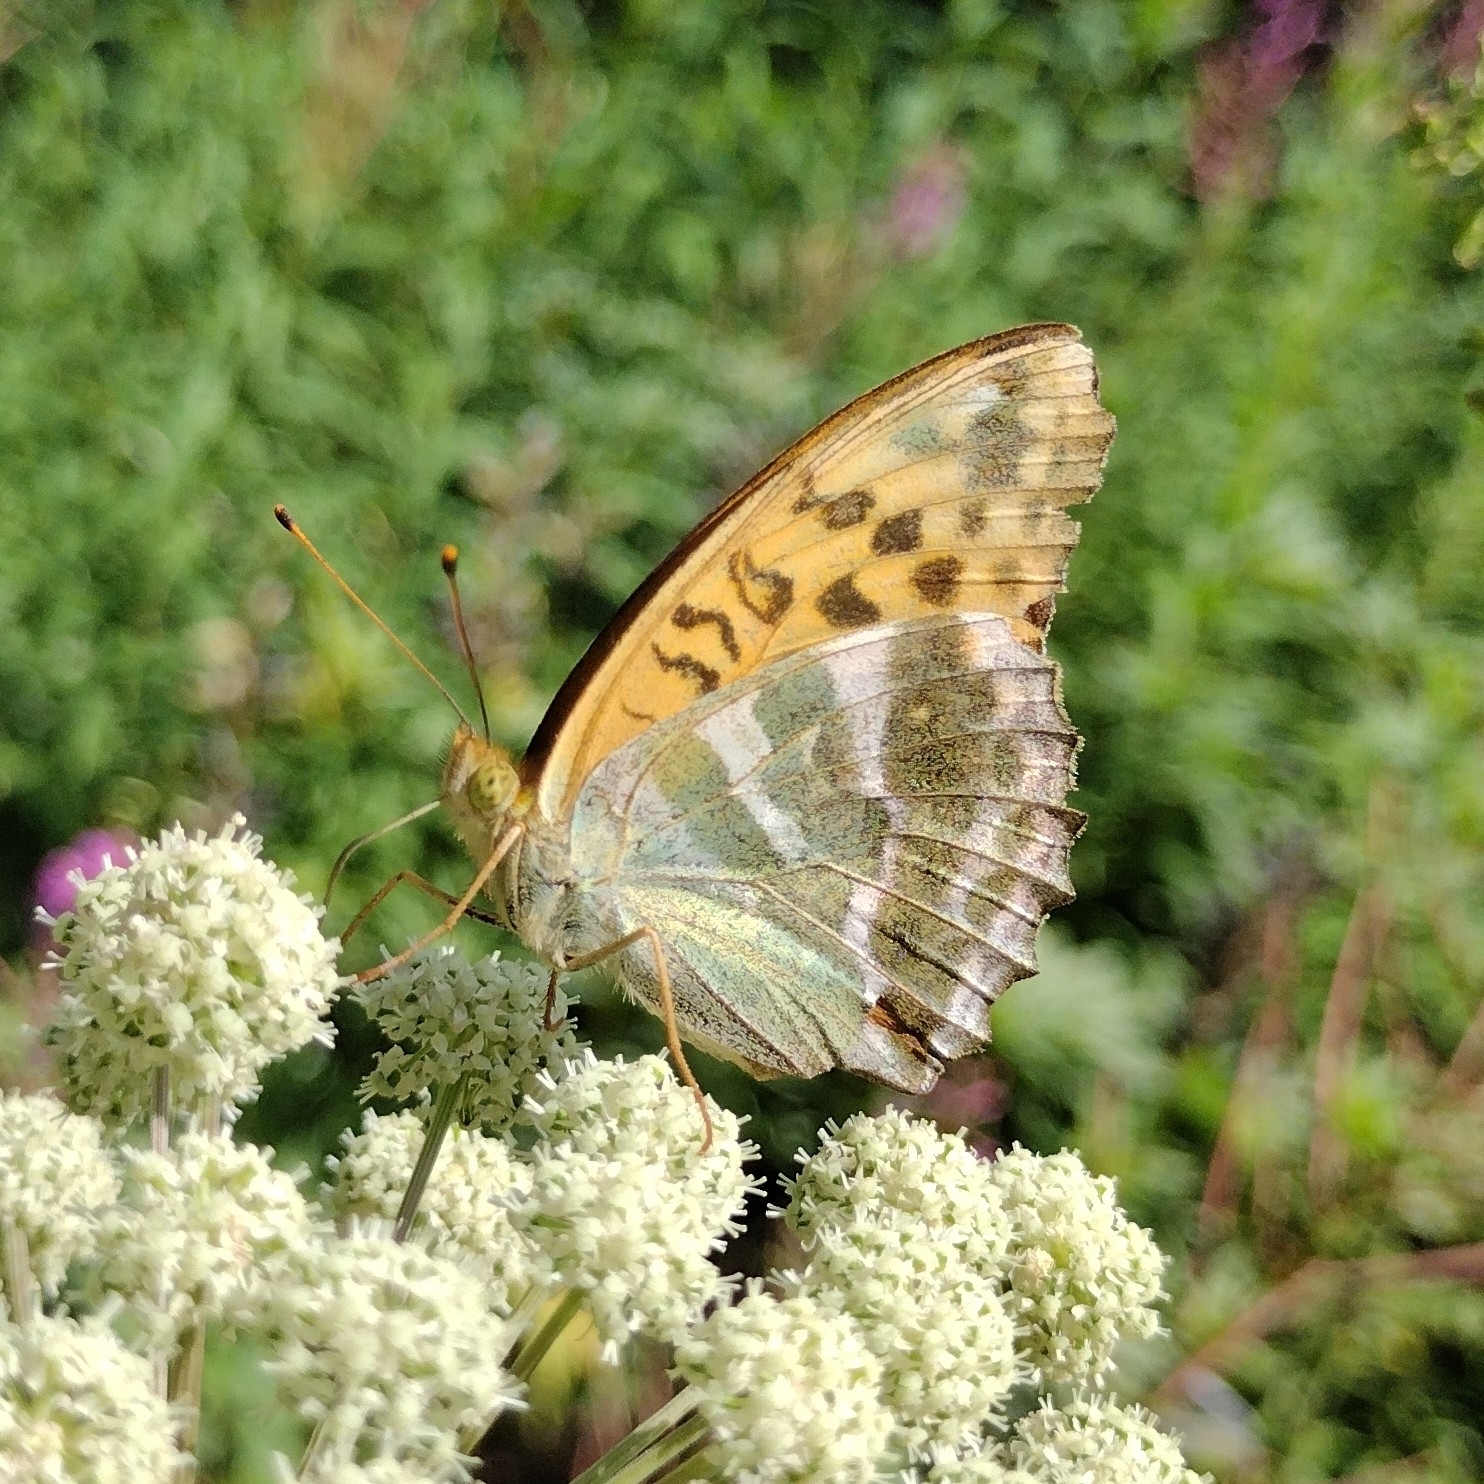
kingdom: Animalia
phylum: Arthropoda
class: Insecta
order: Lepidoptera
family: Nymphalidae
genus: Argynnis
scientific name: Argynnis paphia
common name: Silver-washed fritillary
